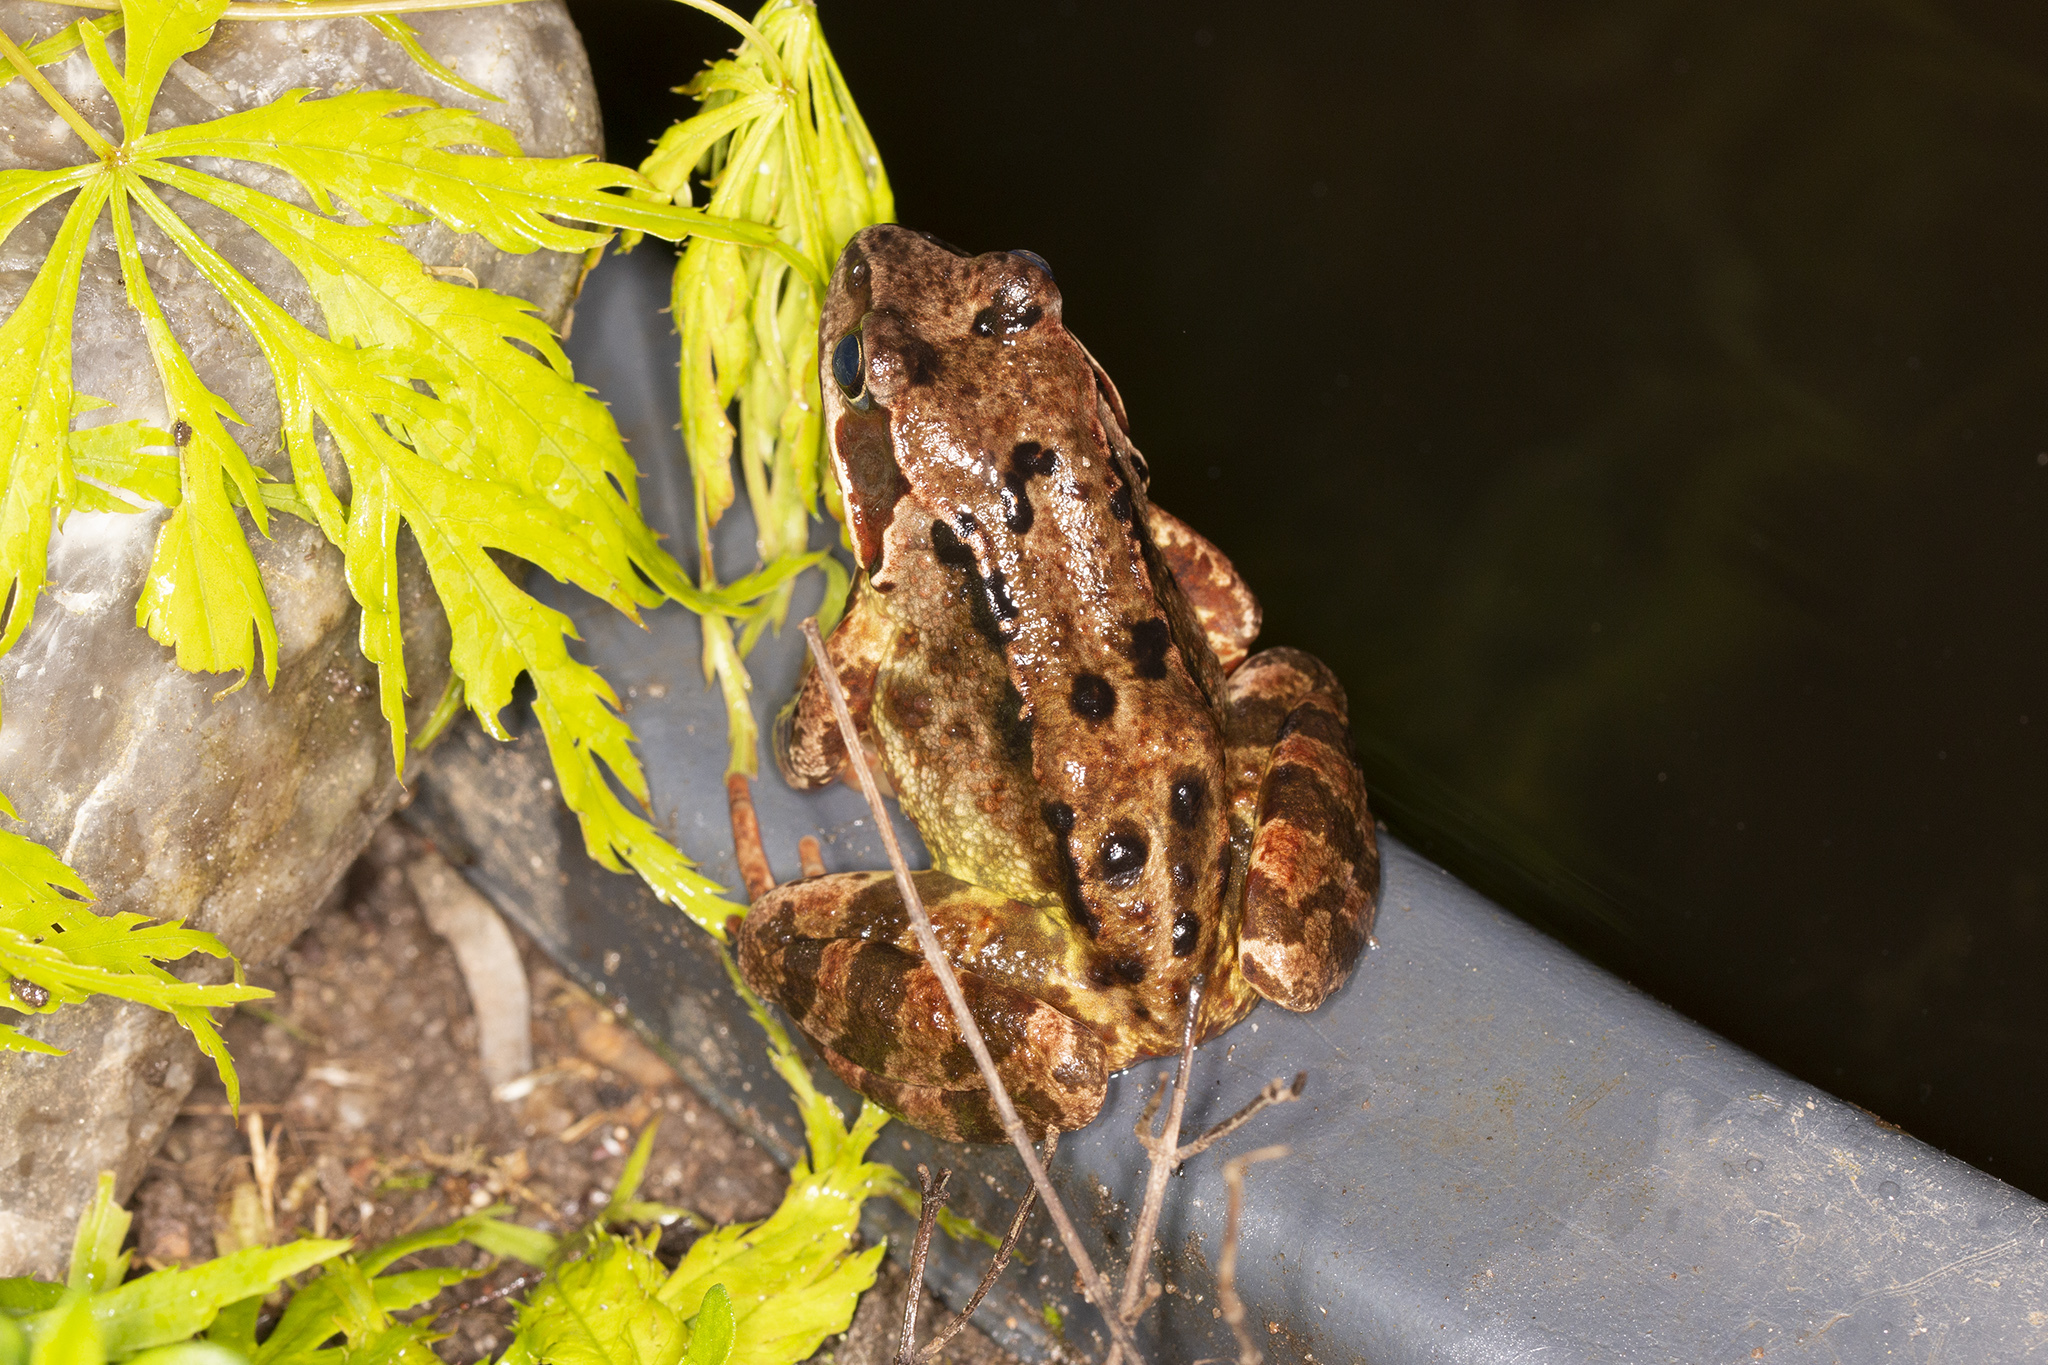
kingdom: Animalia
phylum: Chordata
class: Amphibia
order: Anura
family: Ranidae
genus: Rana
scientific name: Rana temporaria
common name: Common frog
